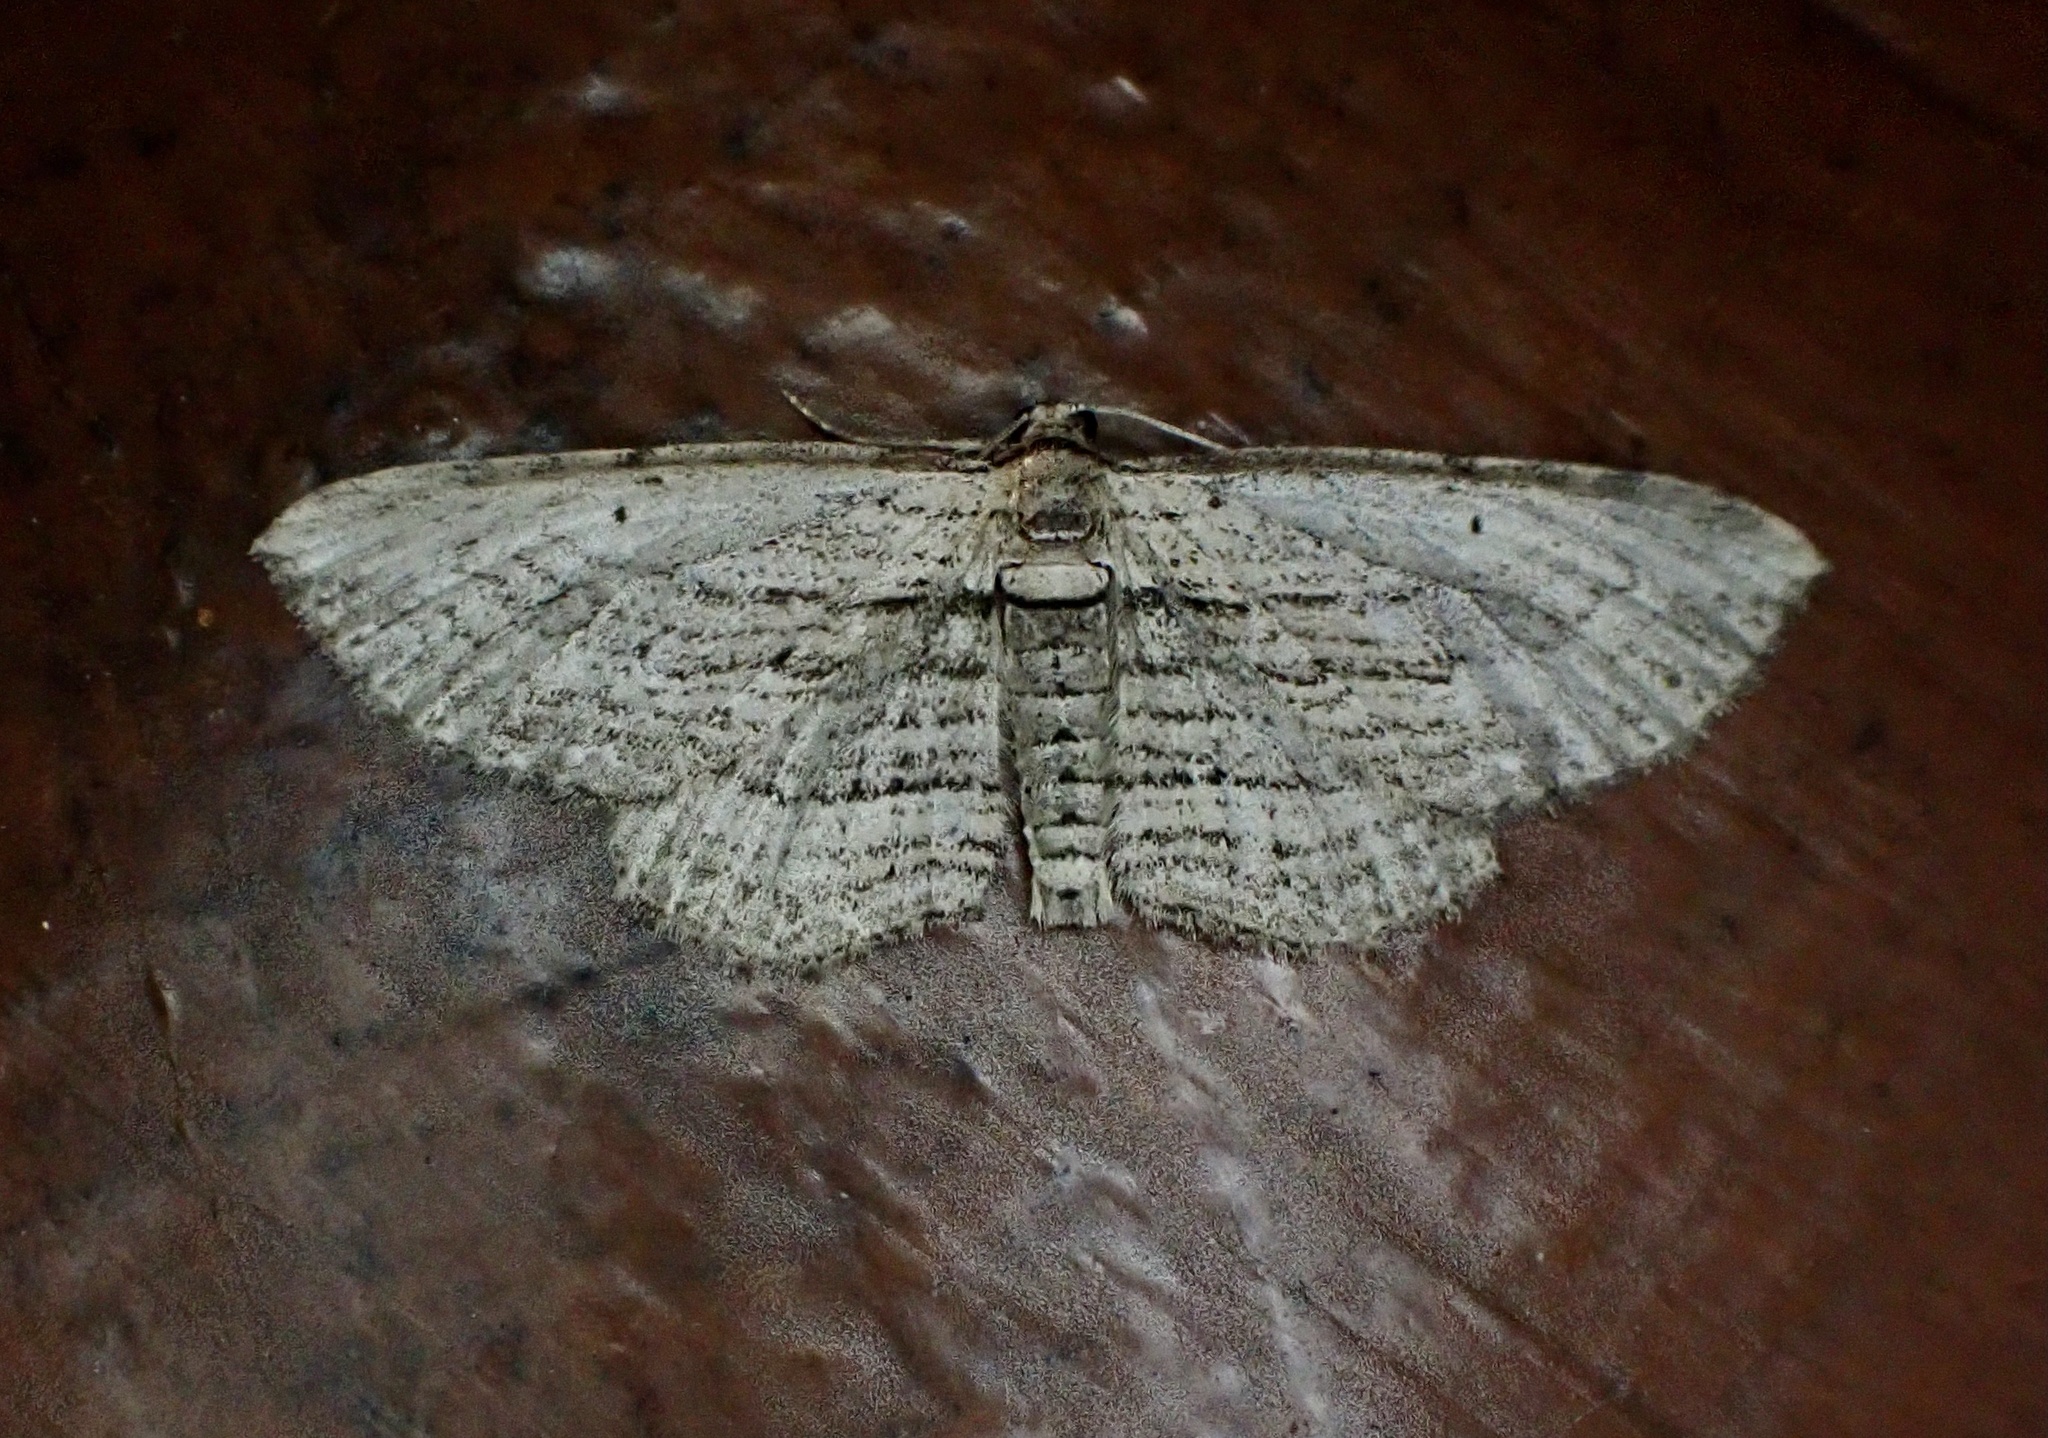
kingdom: Animalia
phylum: Arthropoda
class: Insecta
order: Lepidoptera
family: Geometridae
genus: Horisme
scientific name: Horisme intestinata
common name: Brown bark carpet
